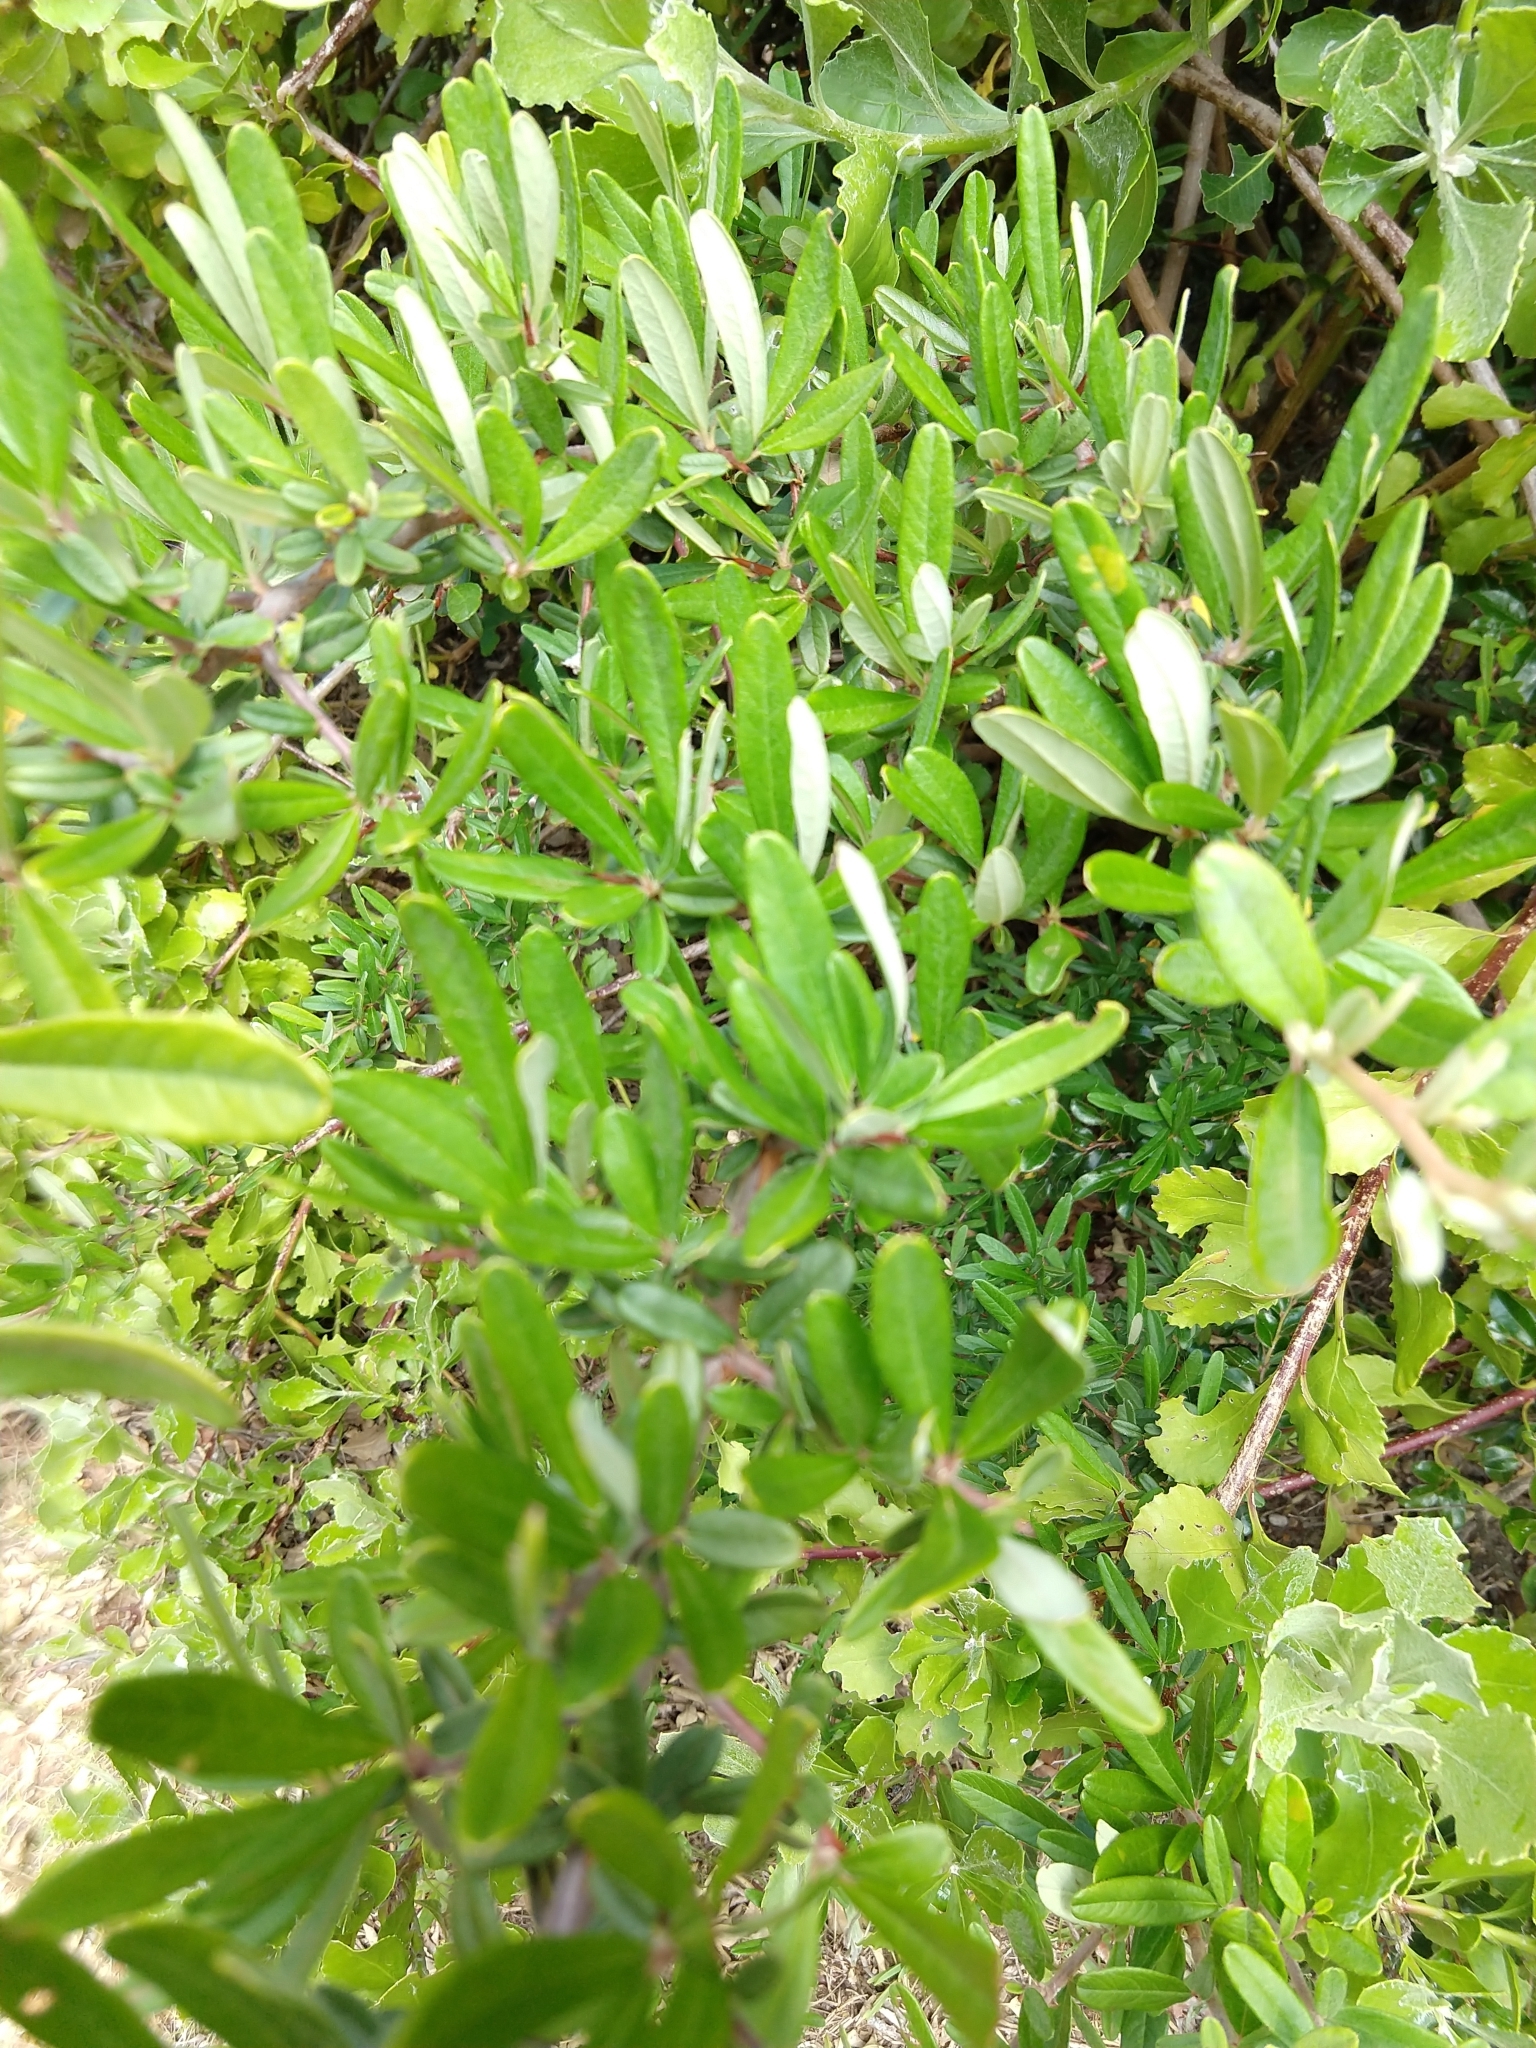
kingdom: Plantae
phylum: Tracheophyta
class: Magnoliopsida
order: Rosales
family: Rosaceae
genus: Pyracantha
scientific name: Pyracantha angustifolia
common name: Narrowleaf firethorn
